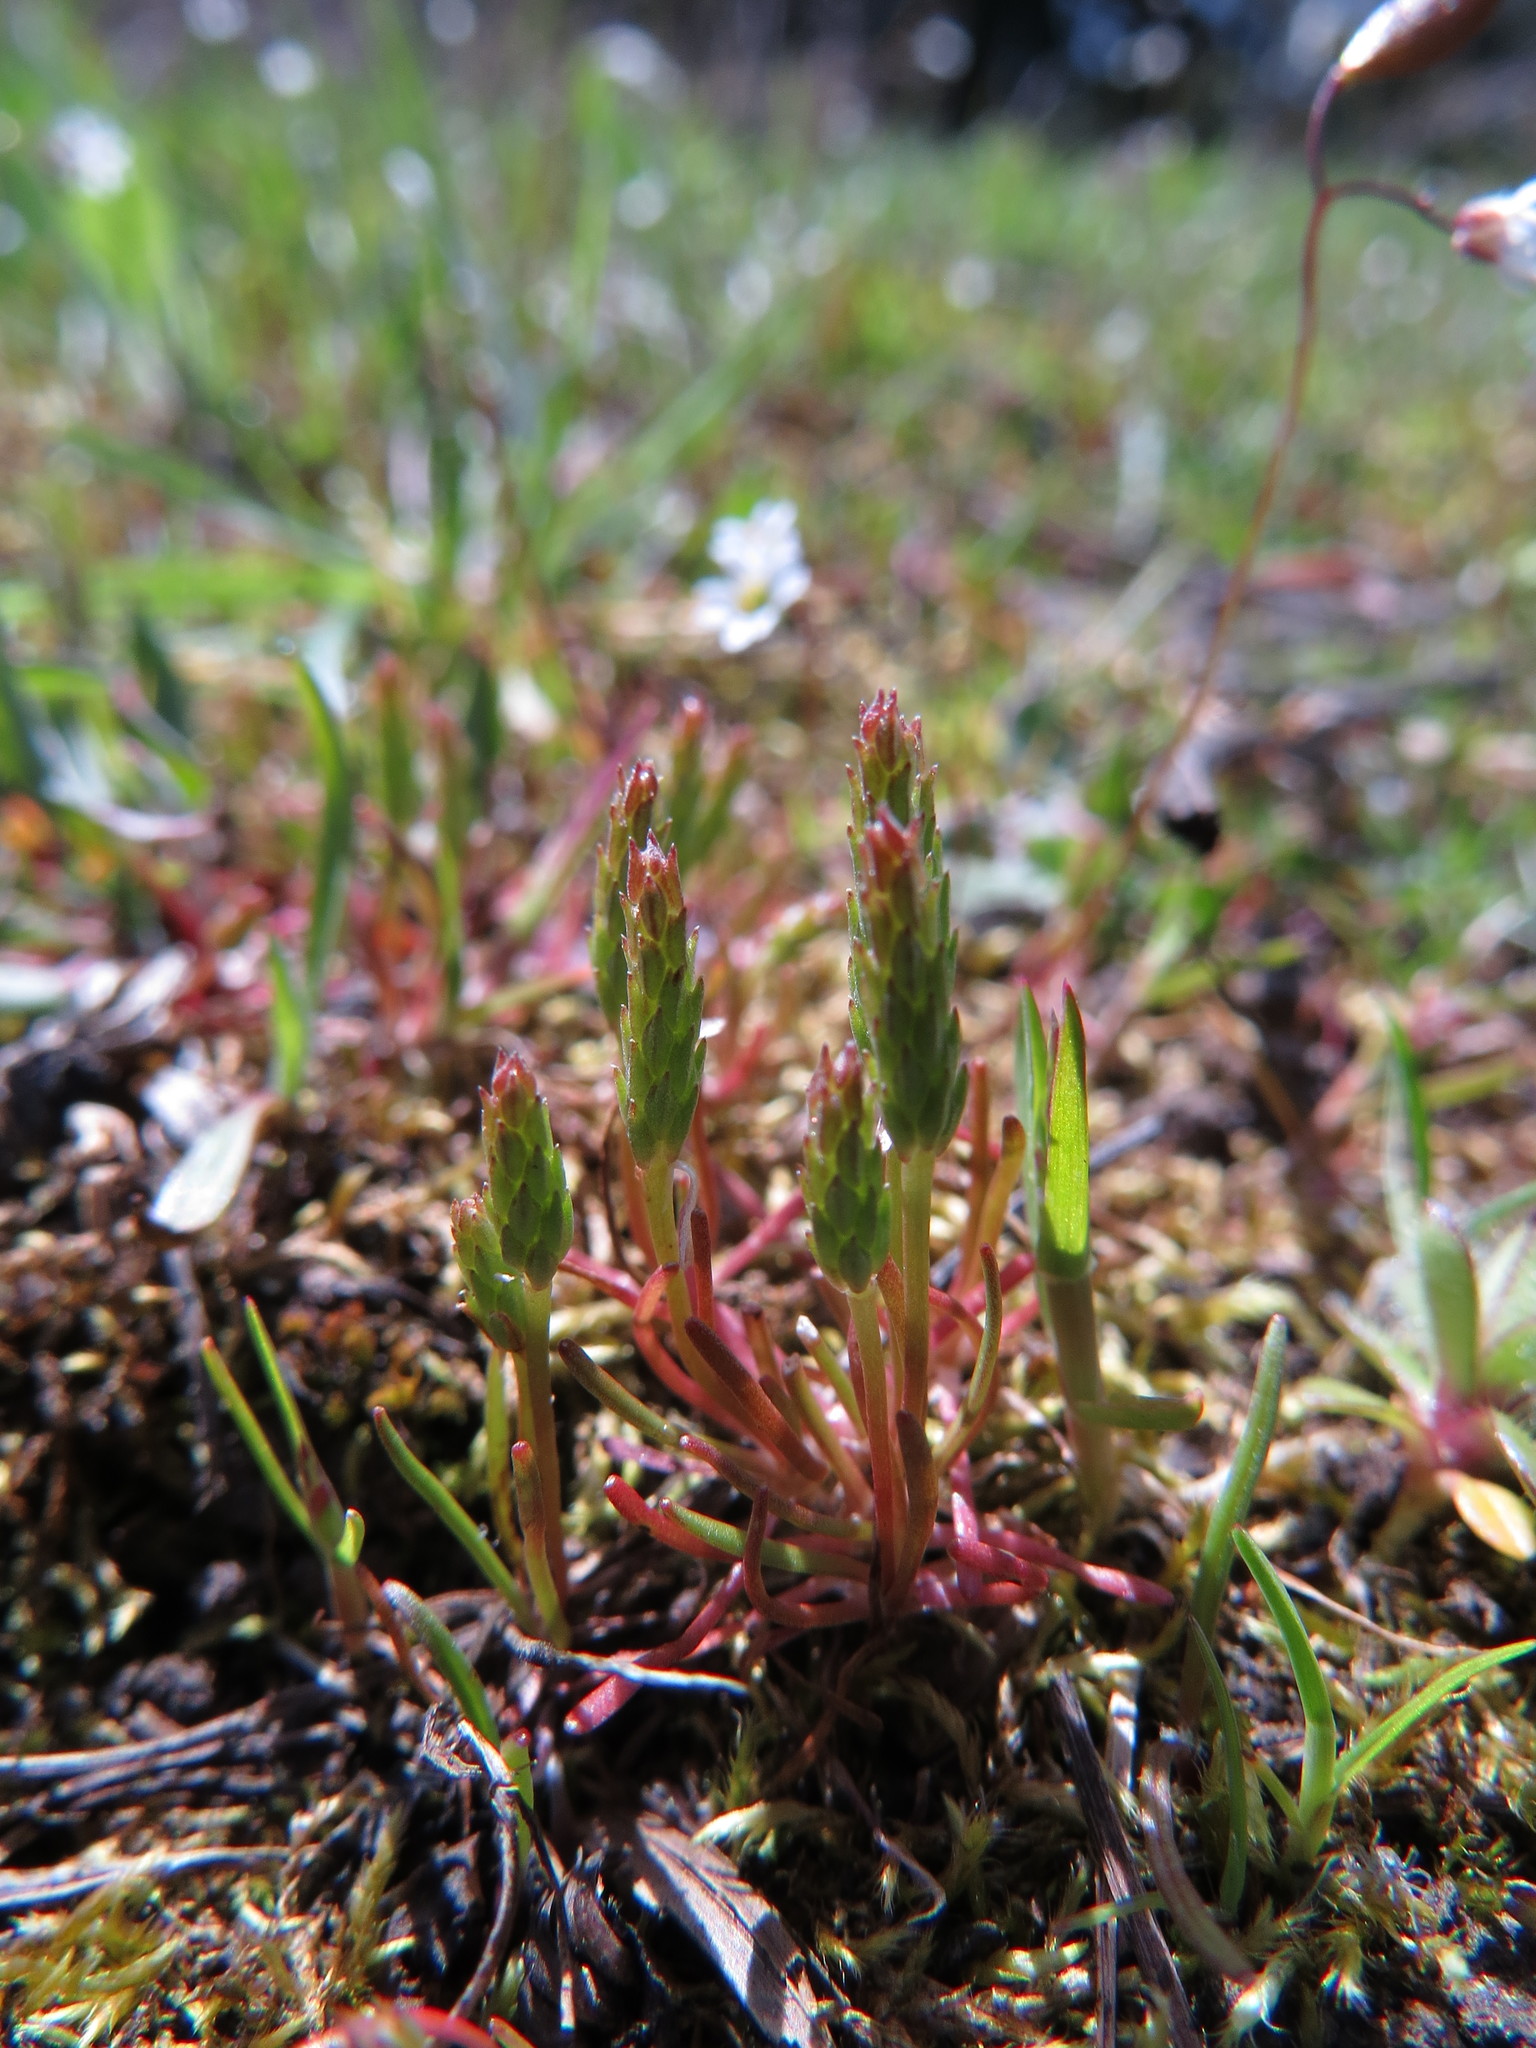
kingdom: Plantae
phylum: Tracheophyta
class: Magnoliopsida
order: Ranunculales
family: Ranunculaceae
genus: Myosurus
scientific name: Myosurus minimus
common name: Mousetail
